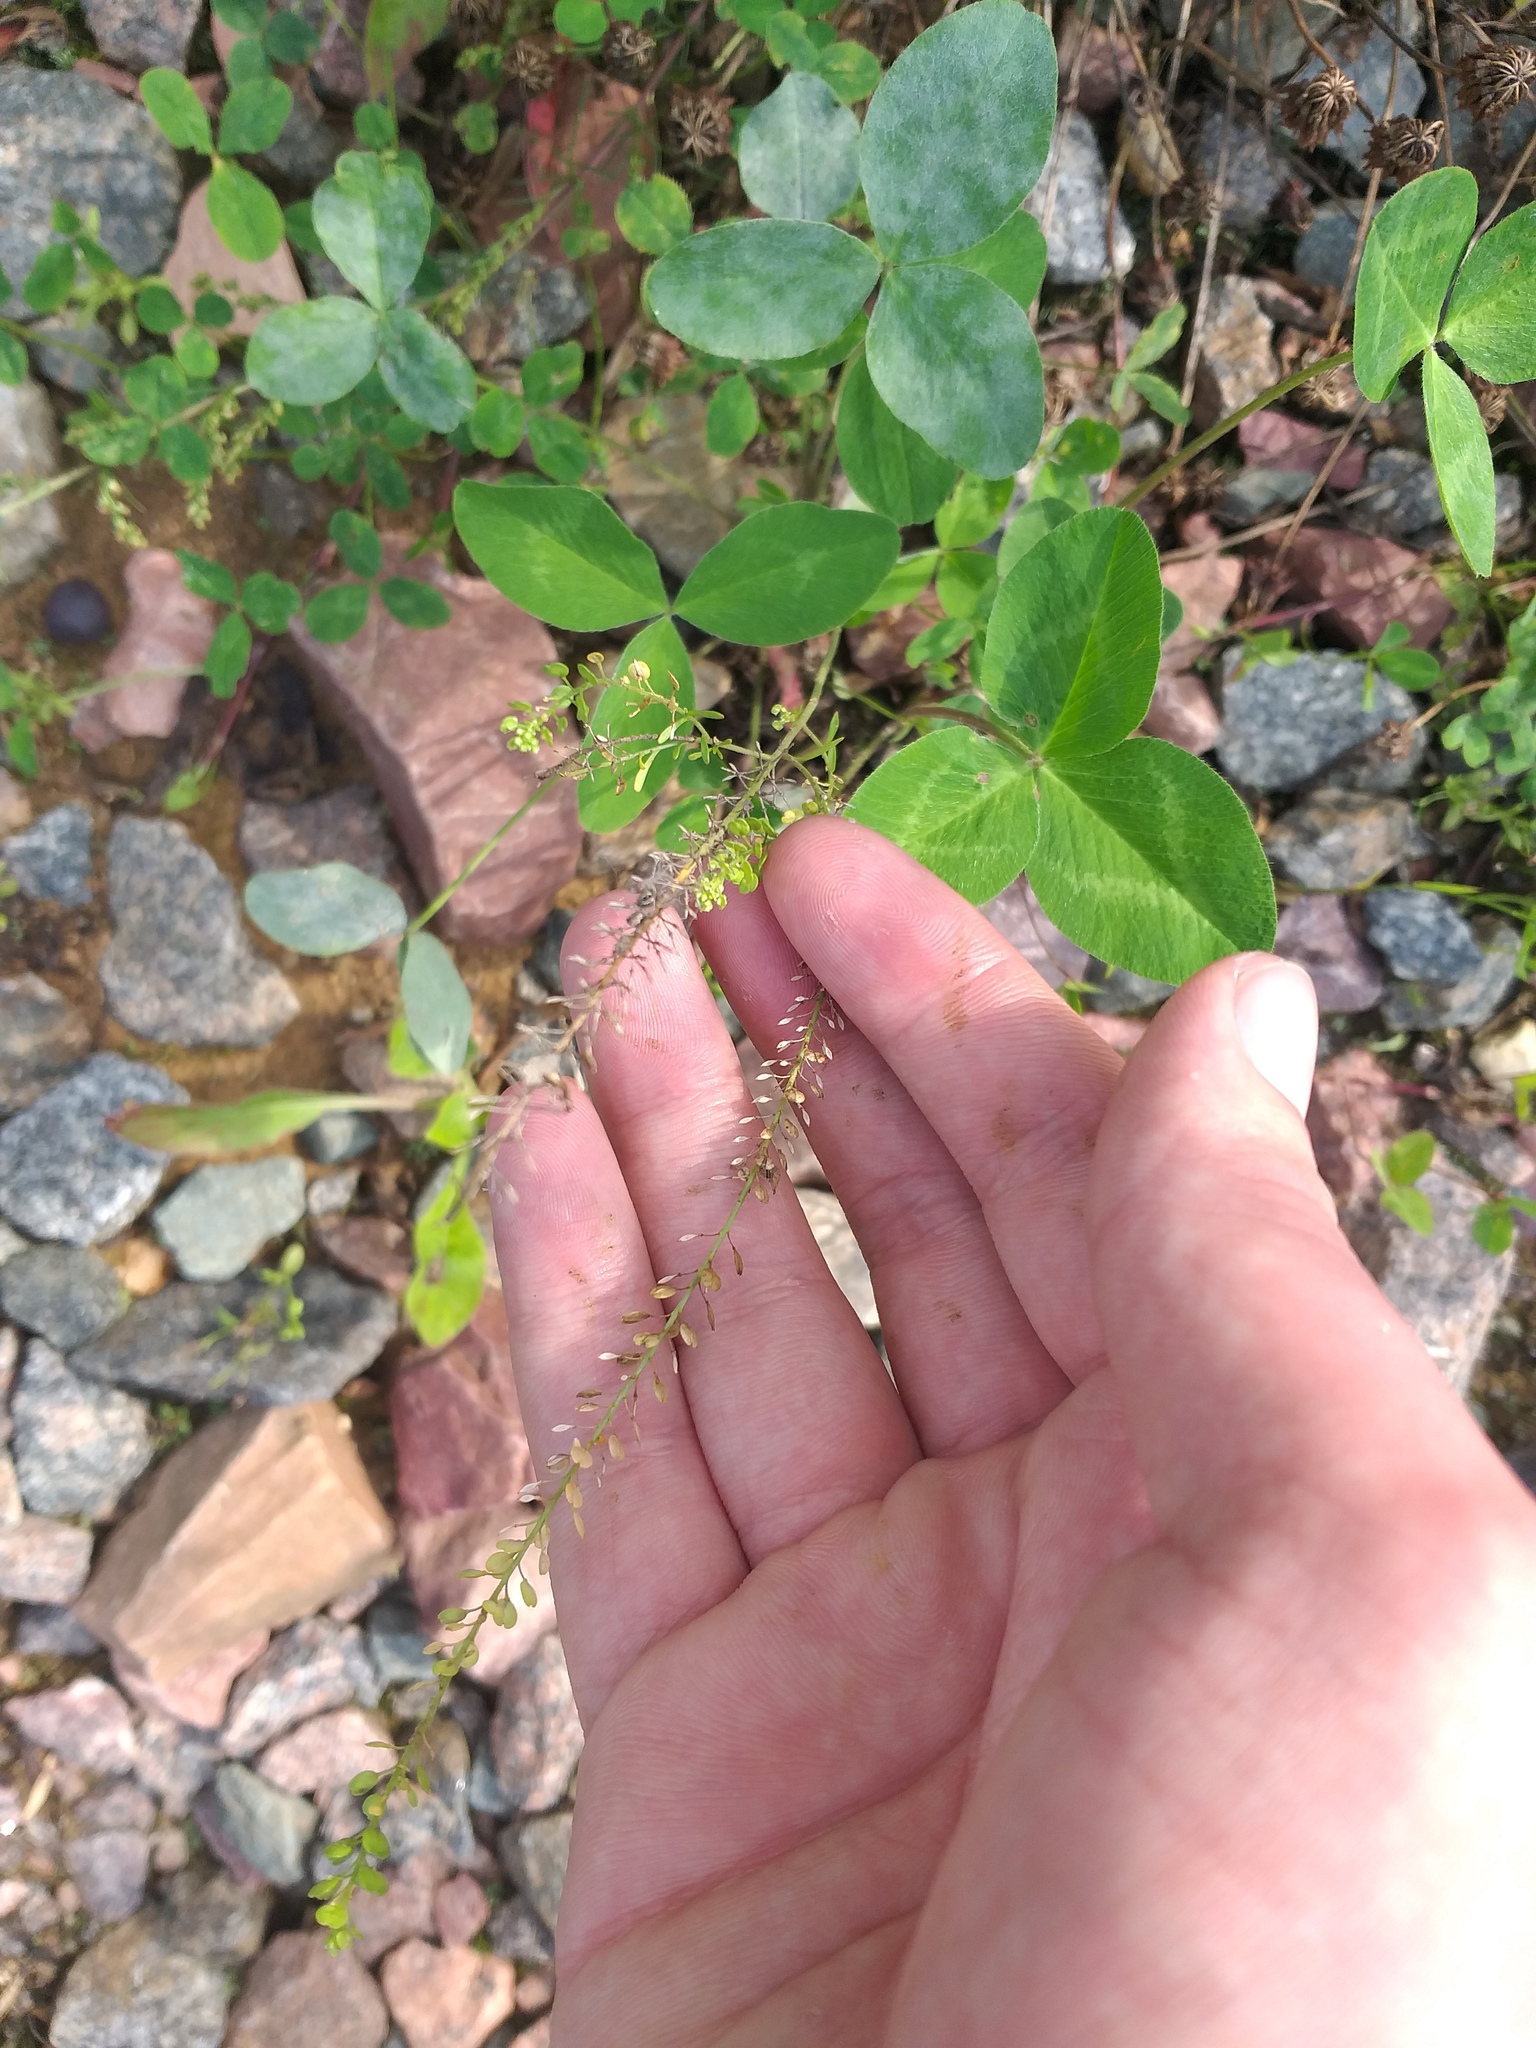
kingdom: Plantae
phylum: Tracheophyta
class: Magnoliopsida
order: Brassicales
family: Brassicaceae
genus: Lepidium
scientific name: Lepidium densiflorum
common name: Miner's pepperwort
